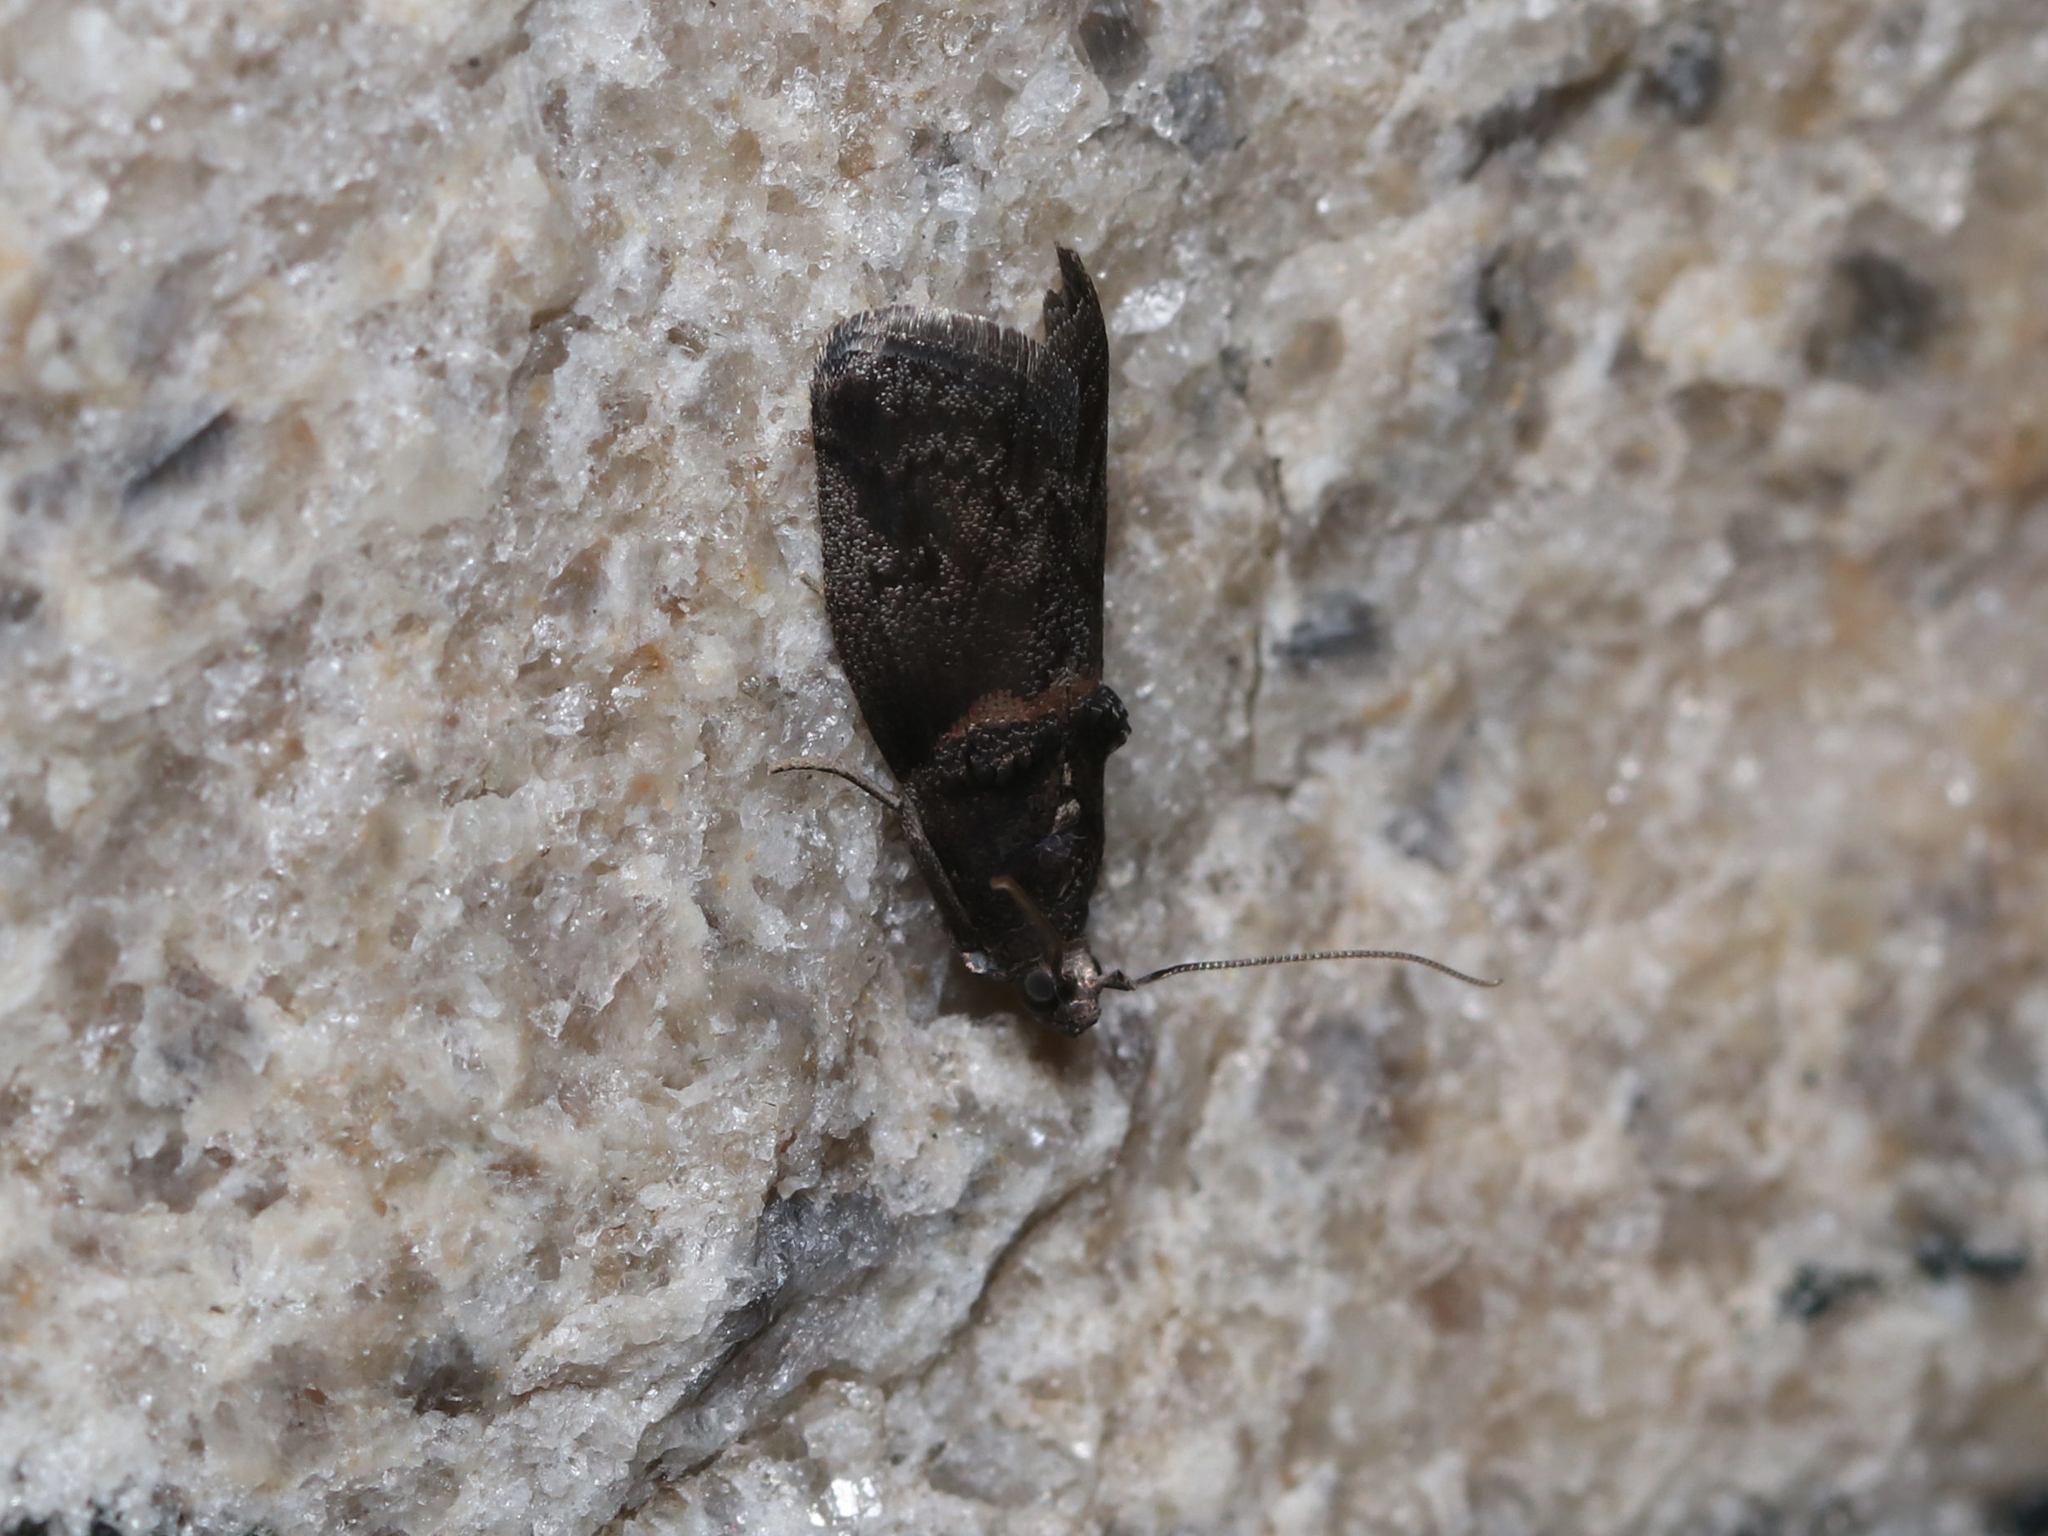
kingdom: Animalia
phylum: Arthropoda
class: Insecta
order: Lepidoptera
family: Pyralidae
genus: Acrobasis
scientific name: Acrobasis caryae
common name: Hickory shoot borer moth
